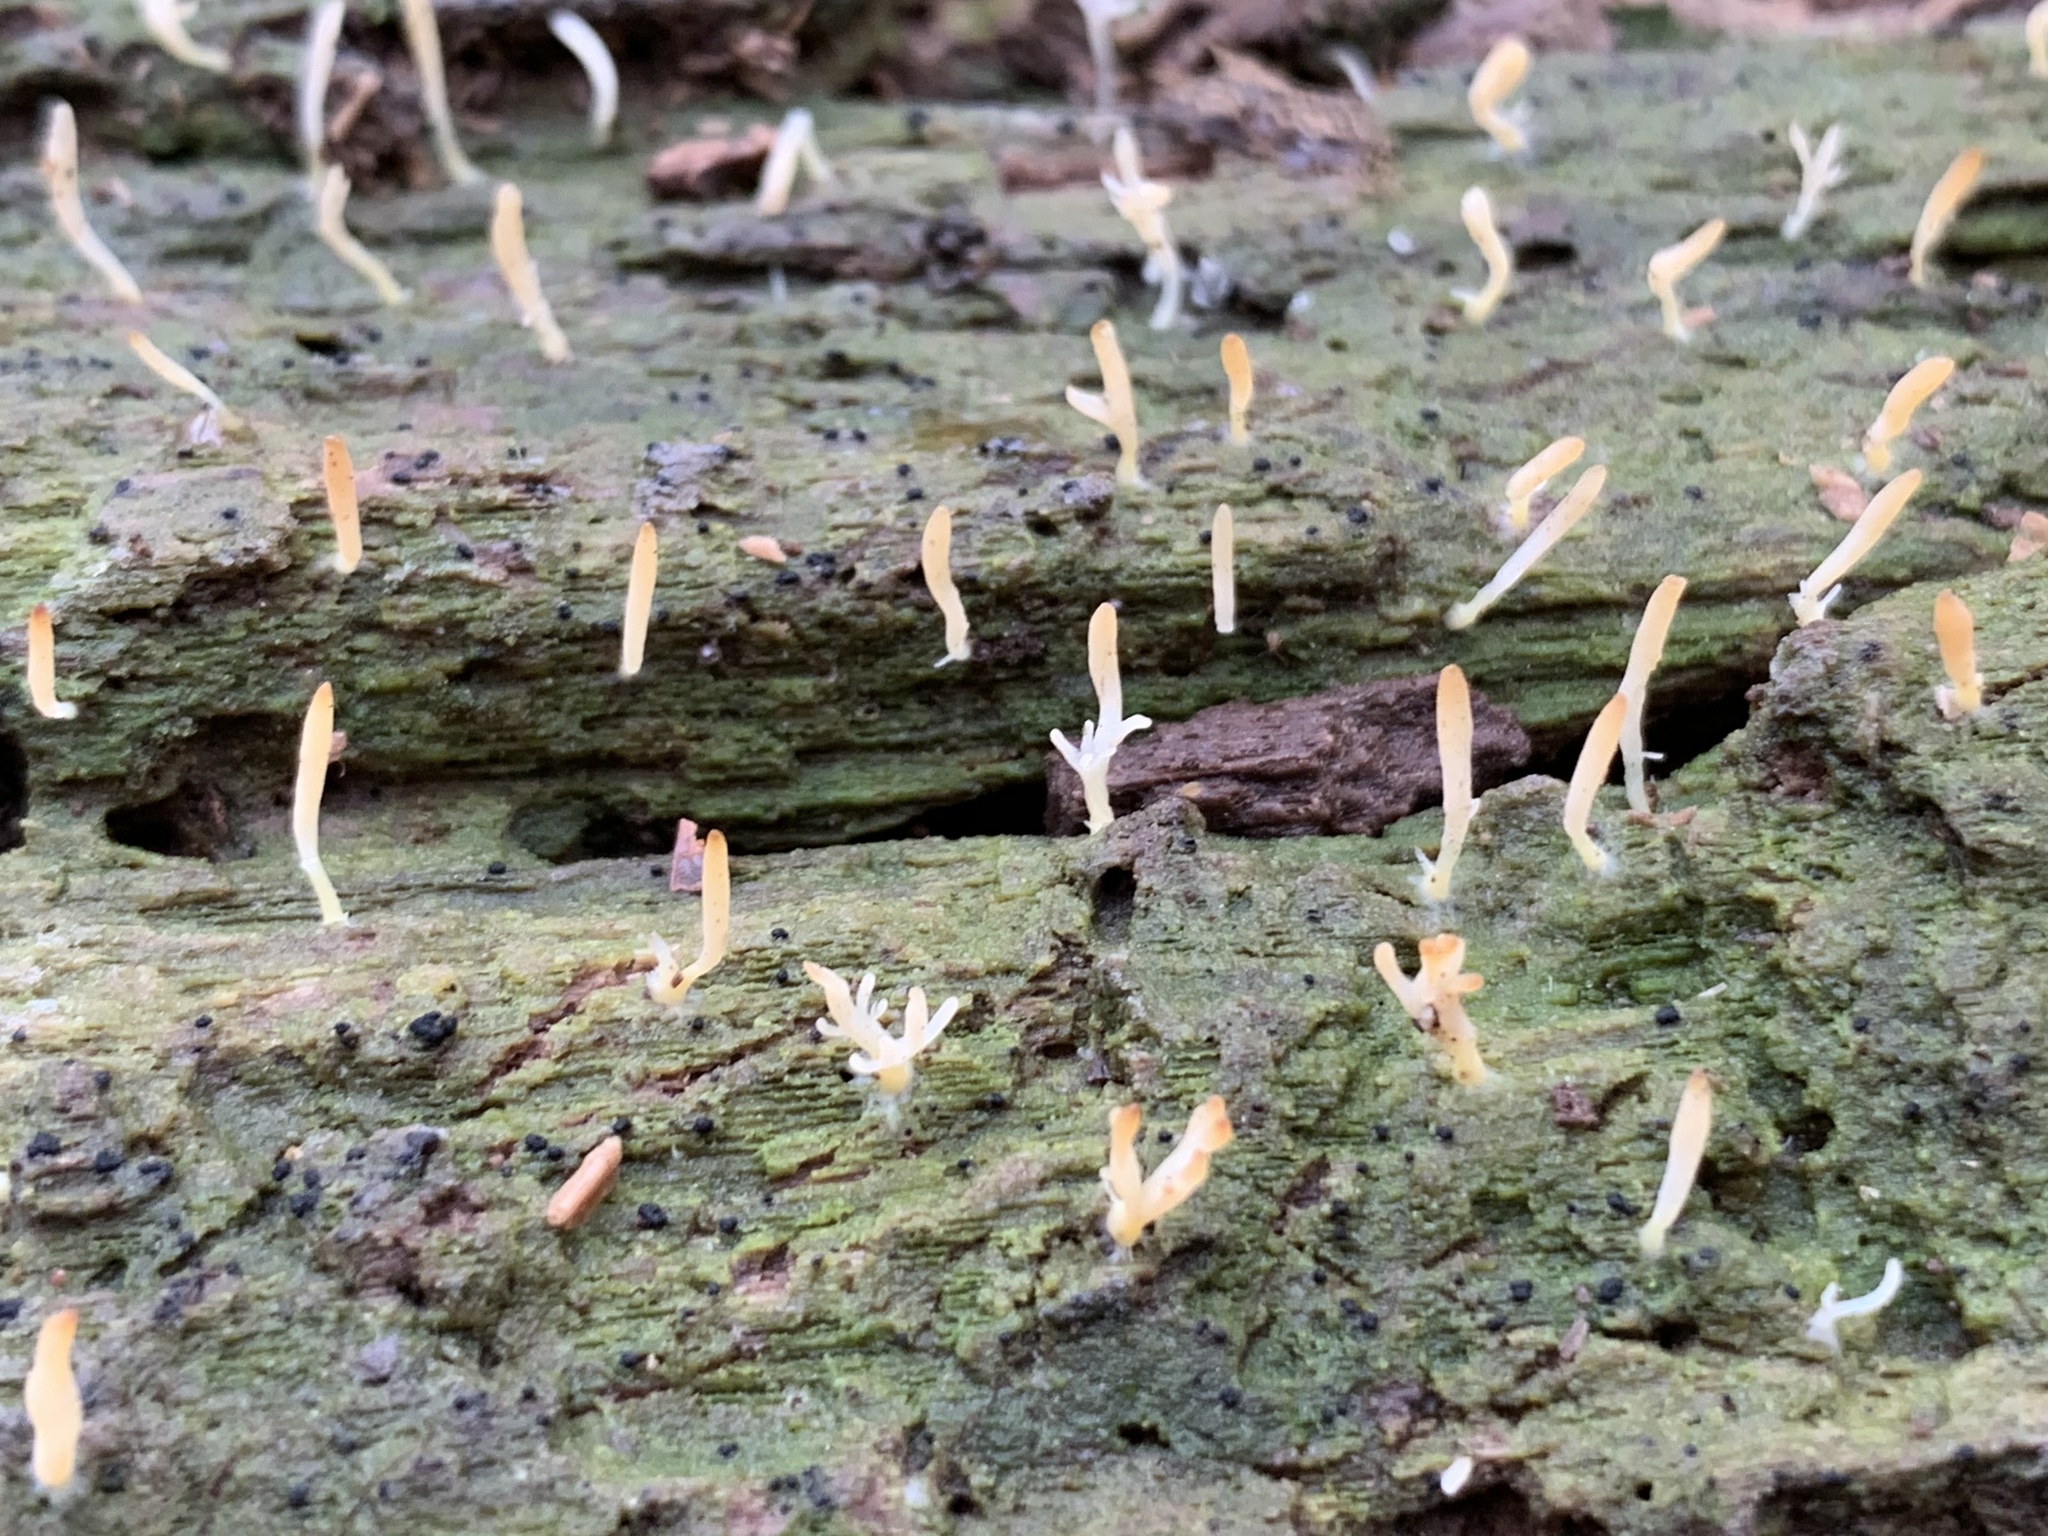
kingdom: Fungi
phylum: Basidiomycota
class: Agaricomycetes
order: Cantharellales
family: Hydnaceae
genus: Multiclavula
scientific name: Multiclavula mucida
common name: White green-algae coral
